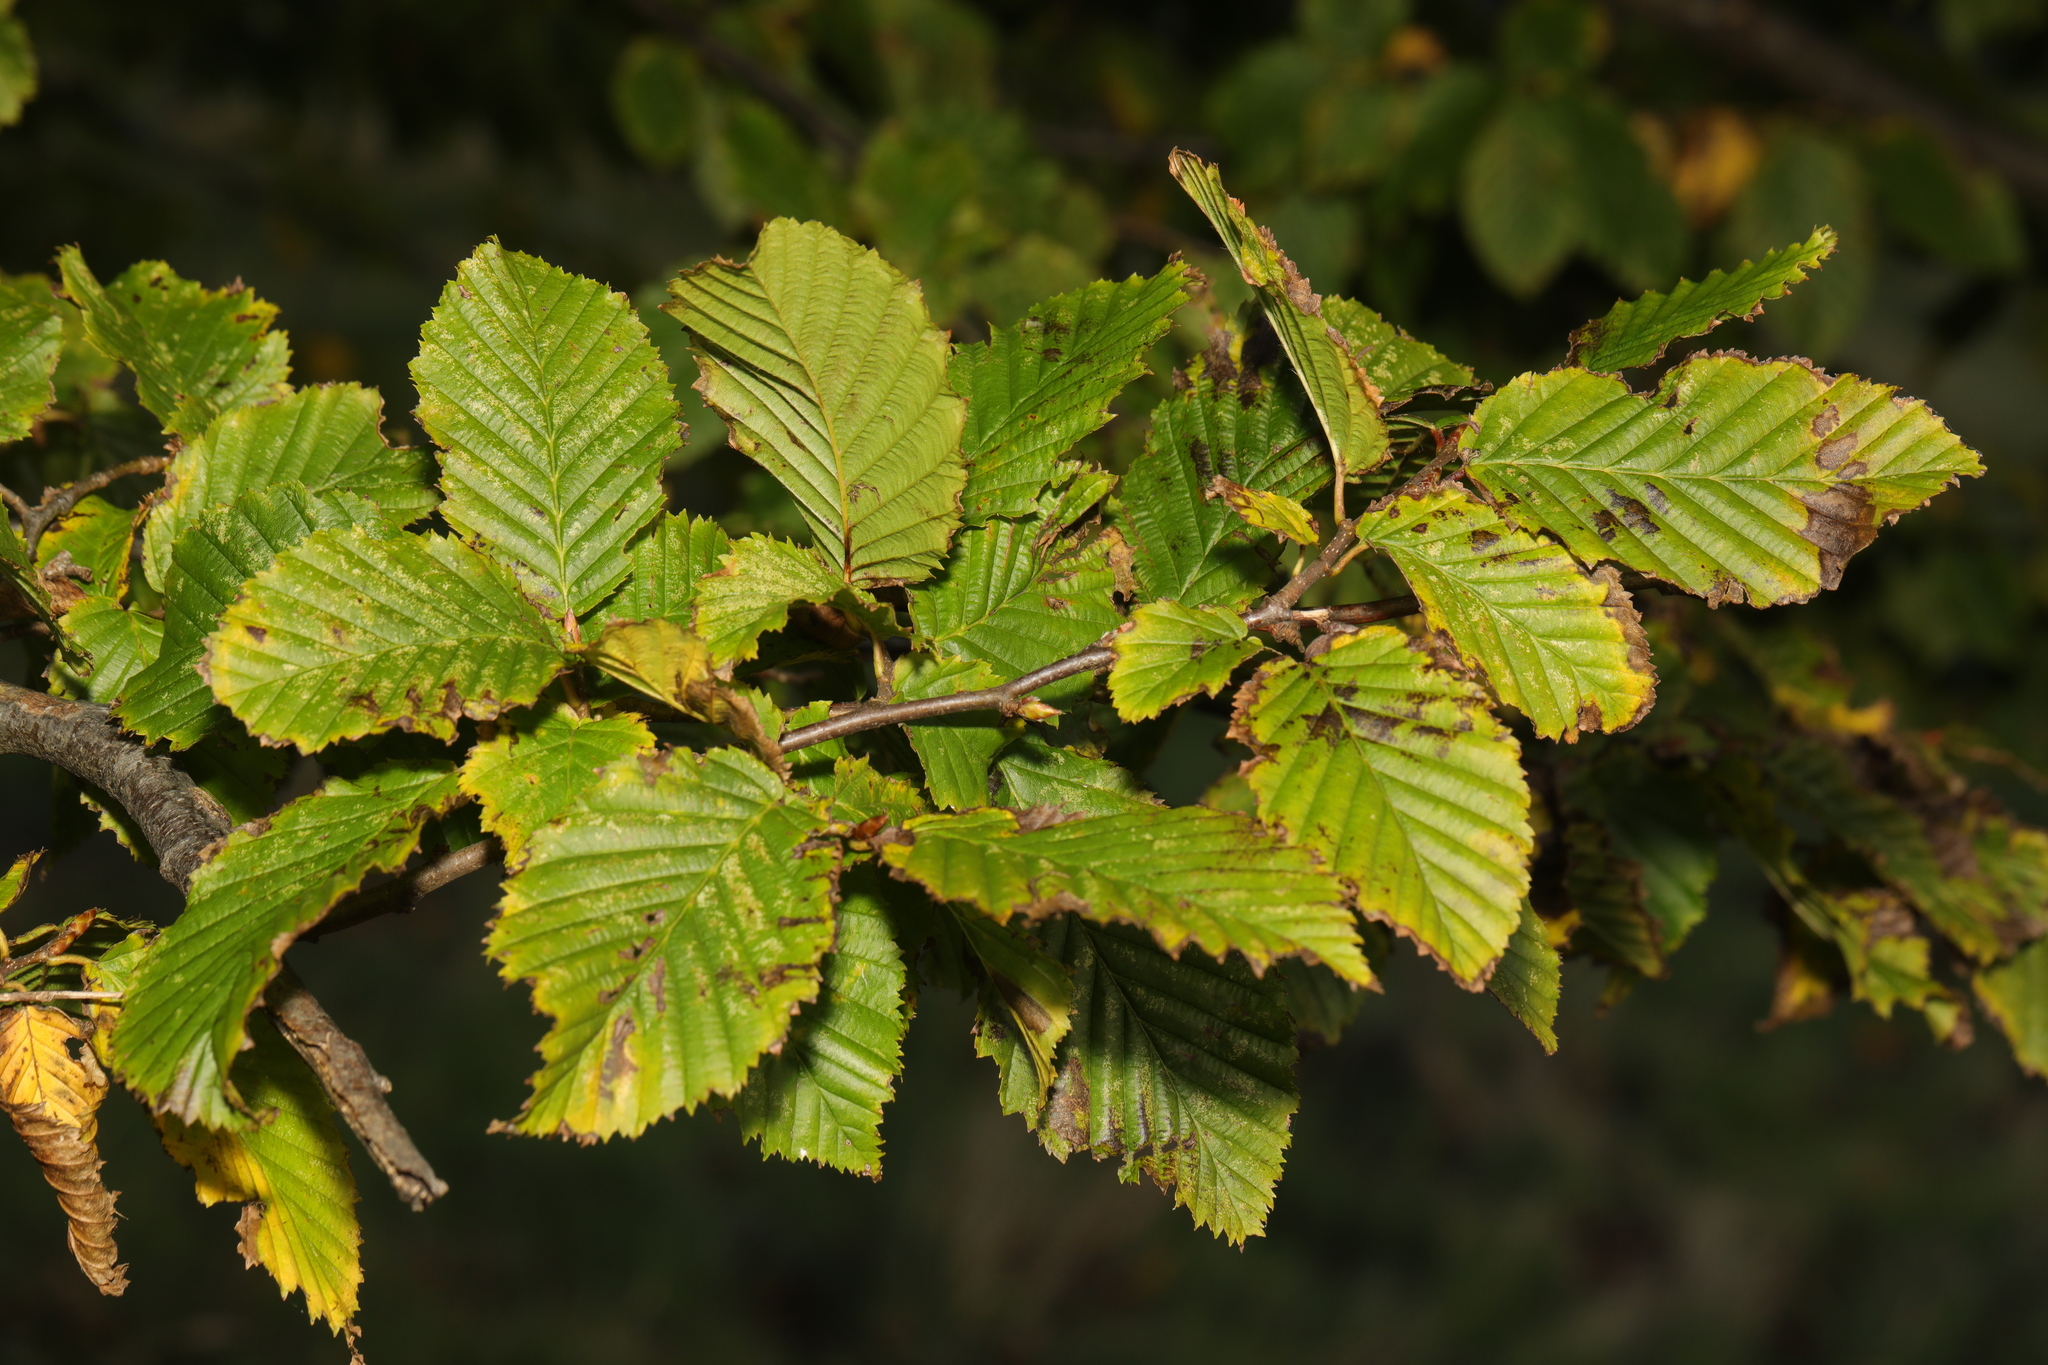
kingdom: Plantae
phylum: Tracheophyta
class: Magnoliopsida
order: Fagales
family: Betulaceae
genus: Carpinus
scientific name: Carpinus betulus
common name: Hornbeam
